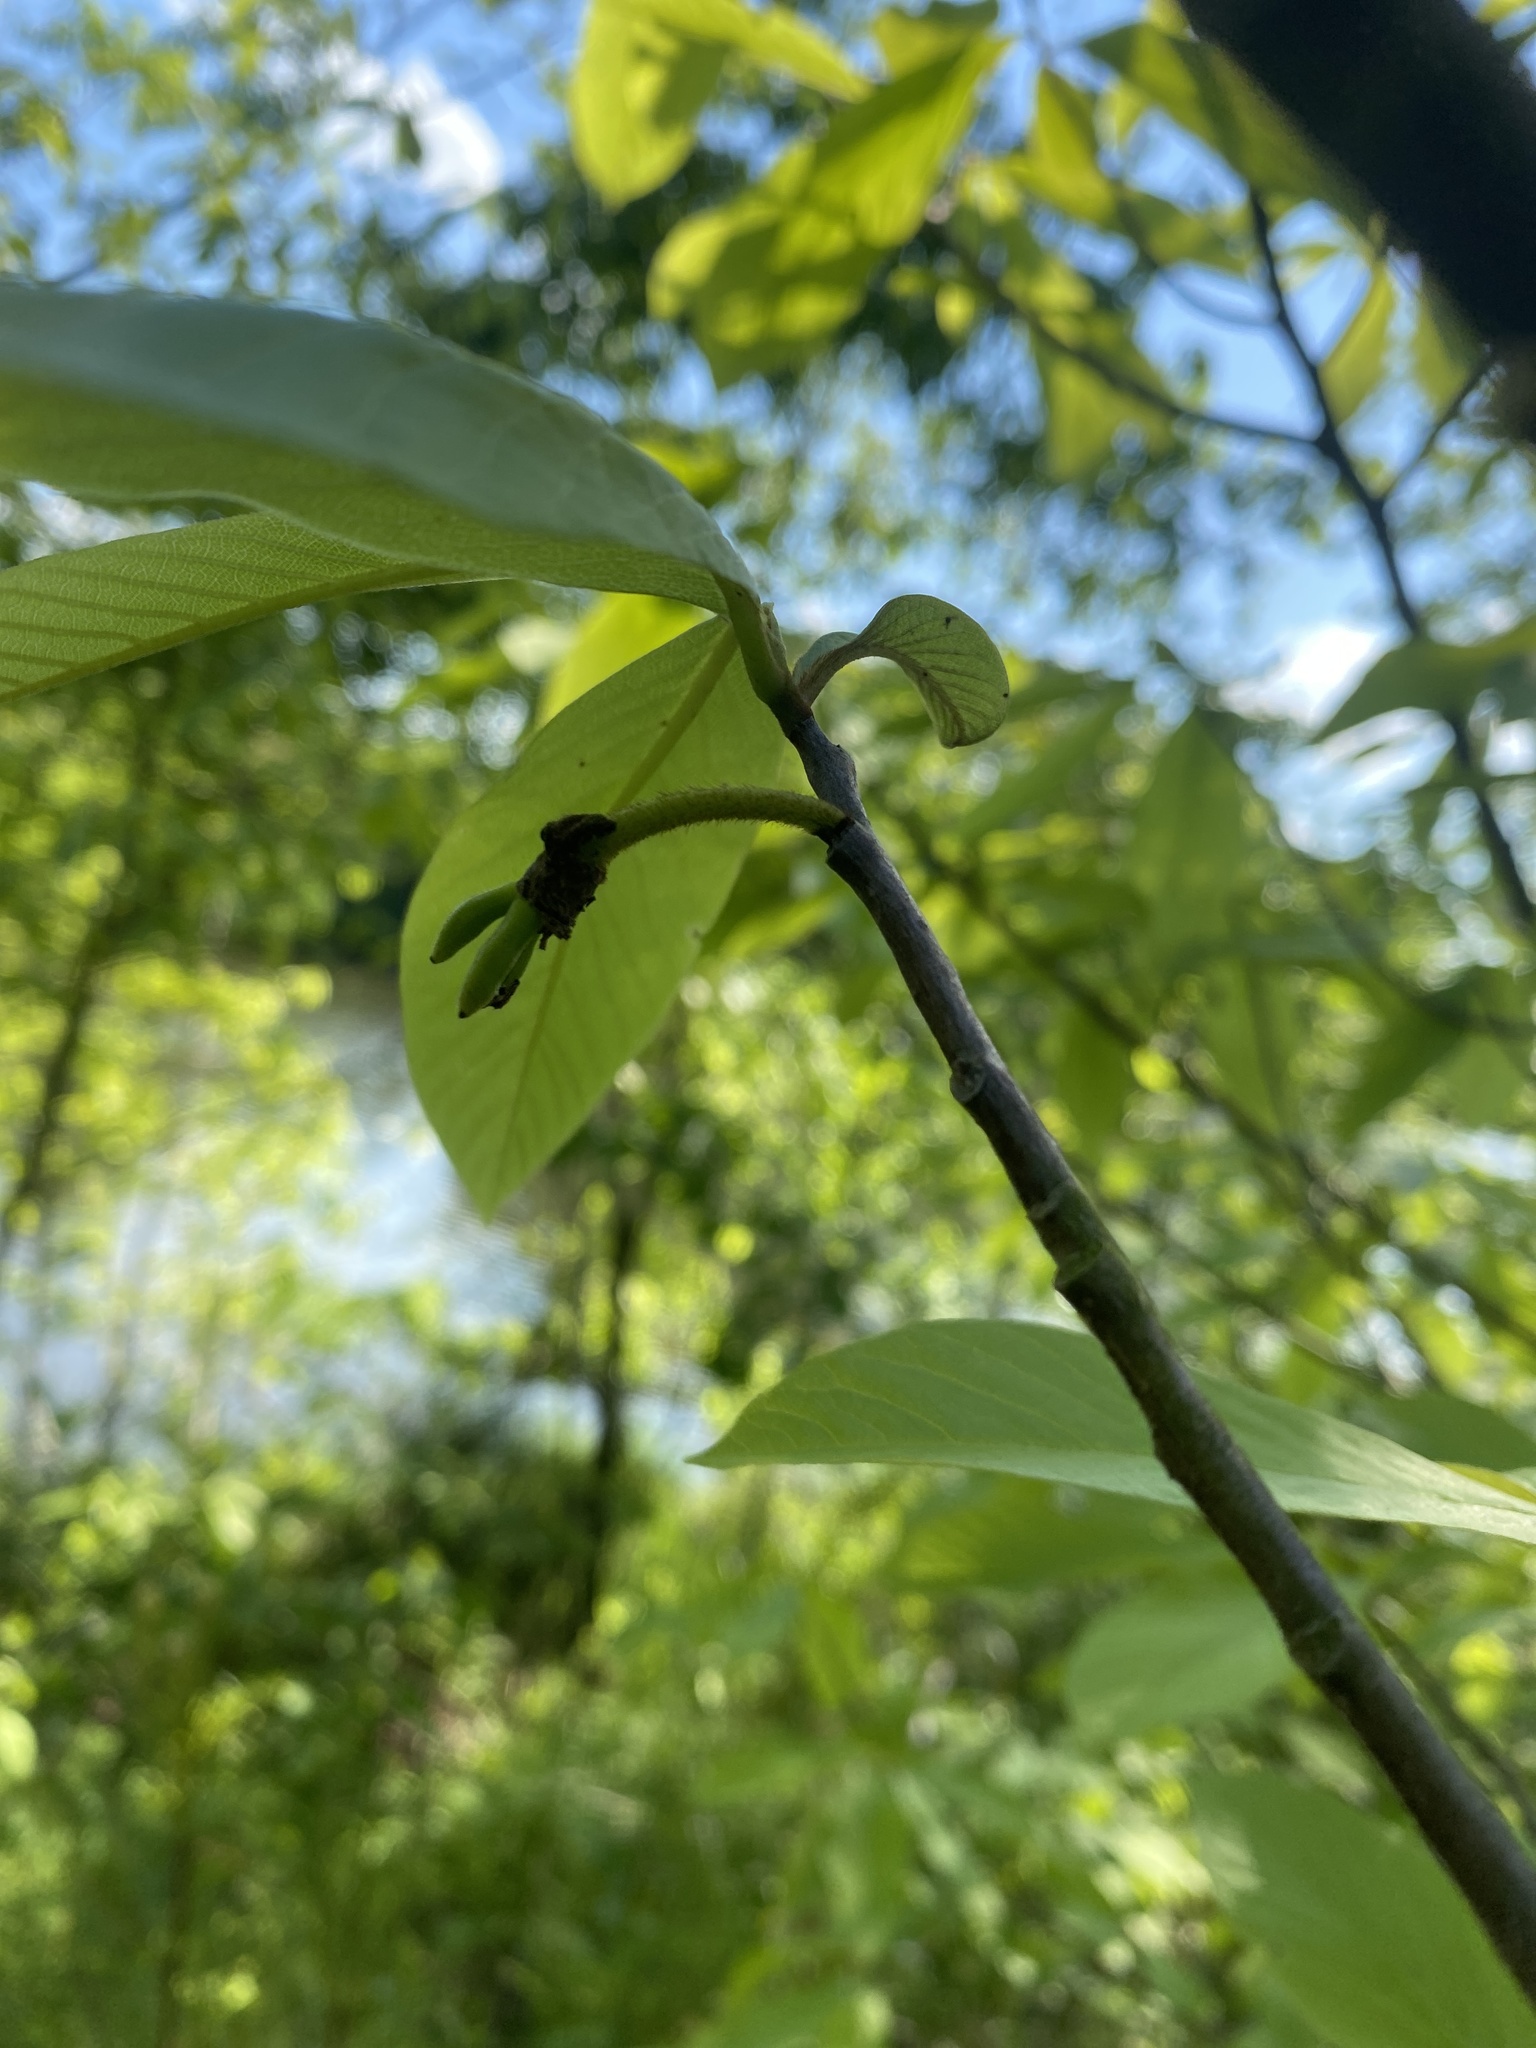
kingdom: Plantae
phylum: Tracheophyta
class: Magnoliopsida
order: Magnoliales
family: Annonaceae
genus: Asimina
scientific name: Asimina triloba
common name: Dog-banana
